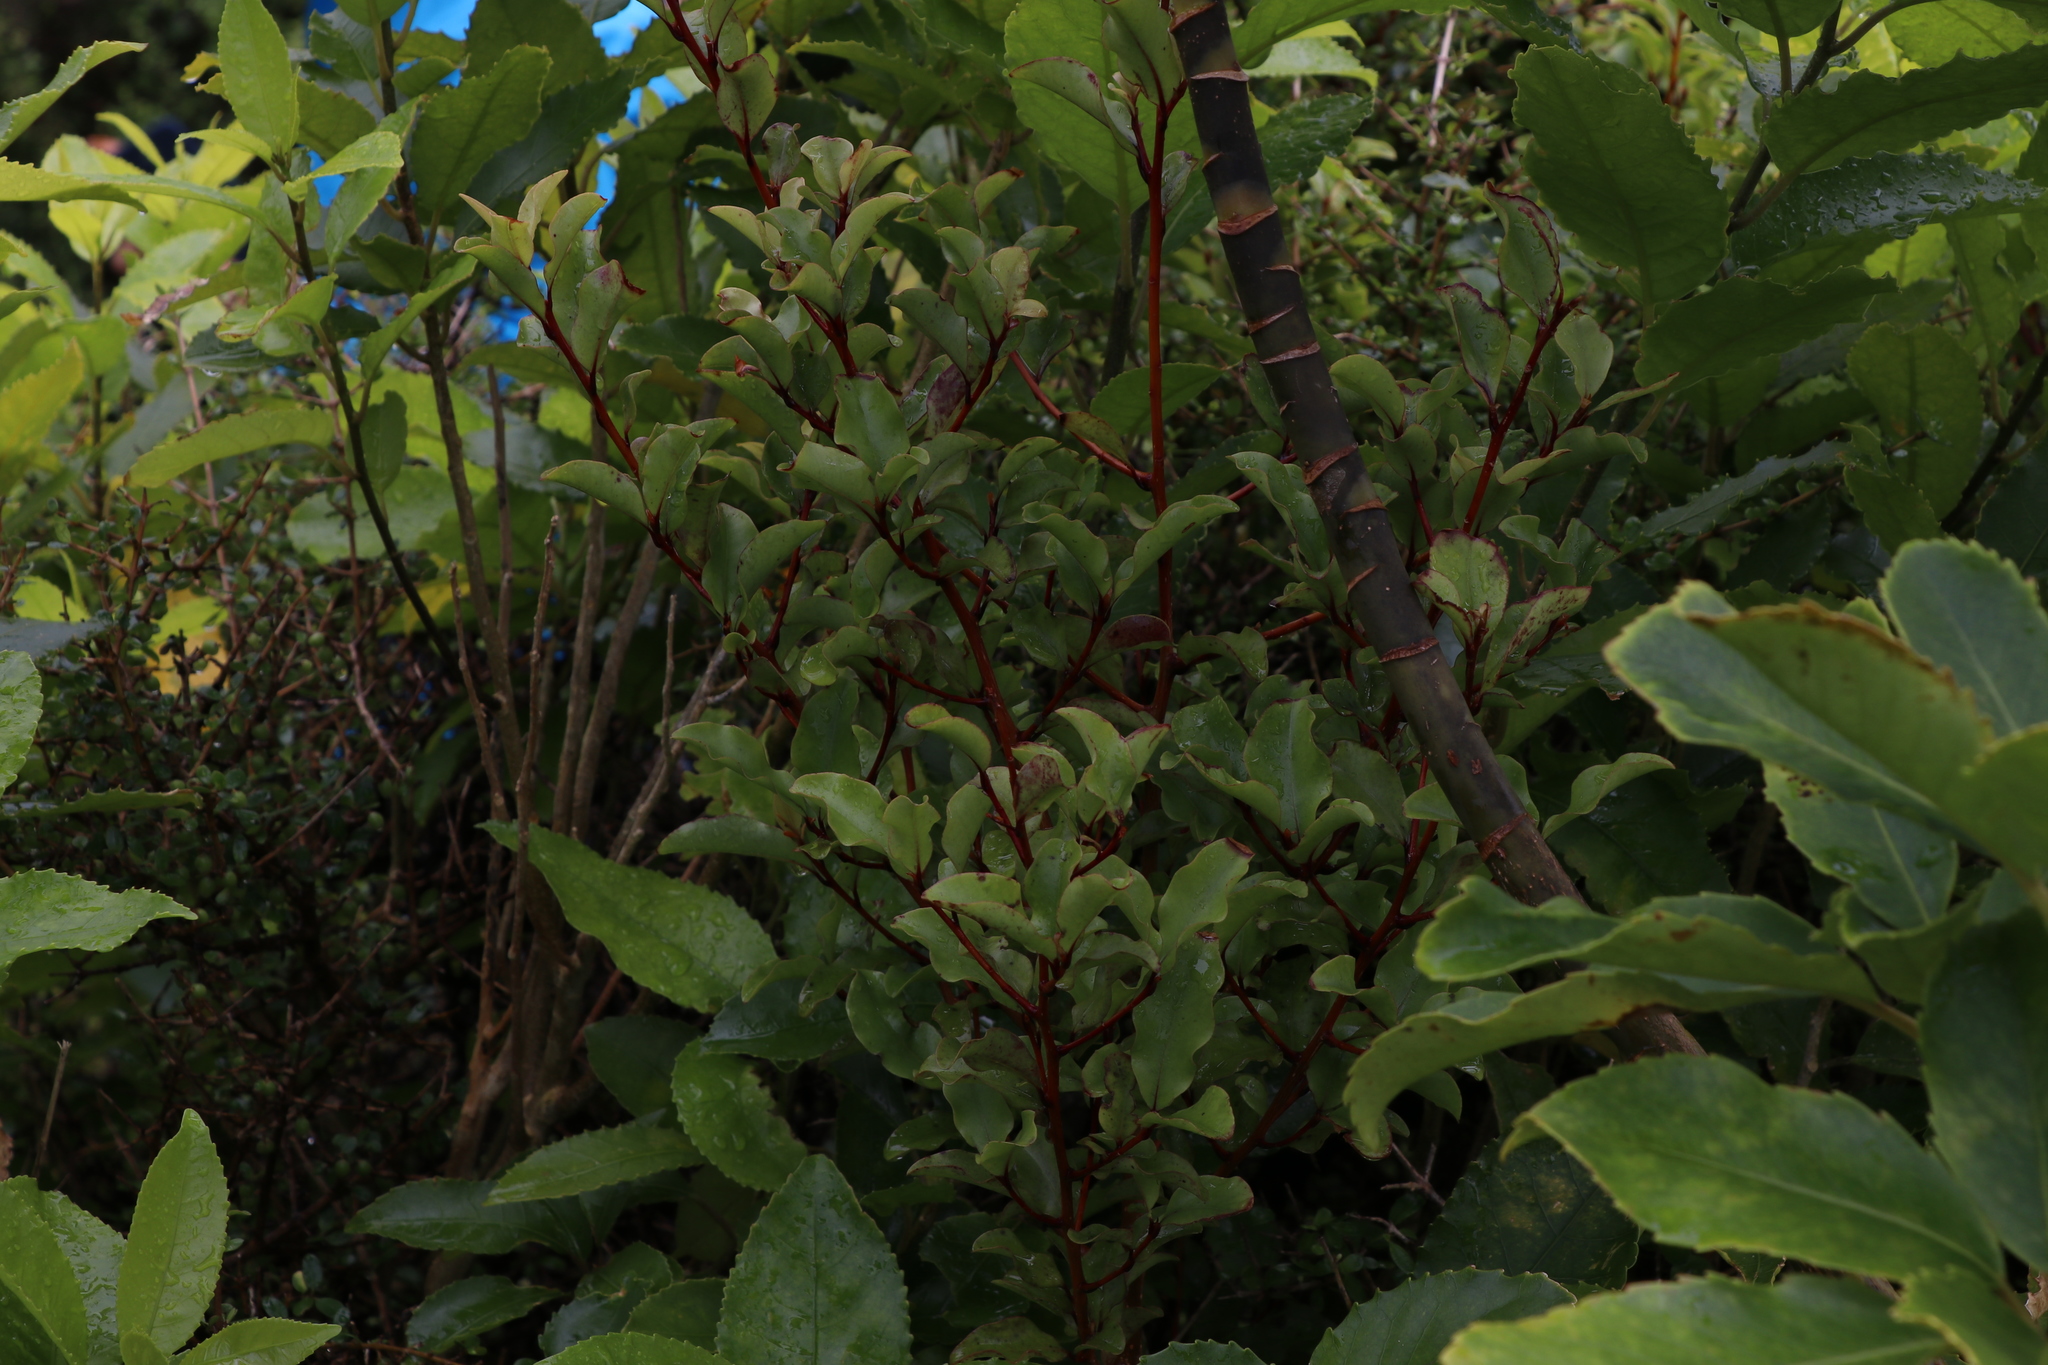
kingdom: Plantae
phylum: Tracheophyta
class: Magnoliopsida
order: Ericales
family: Primulaceae
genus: Myrsine
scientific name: Myrsine australis
